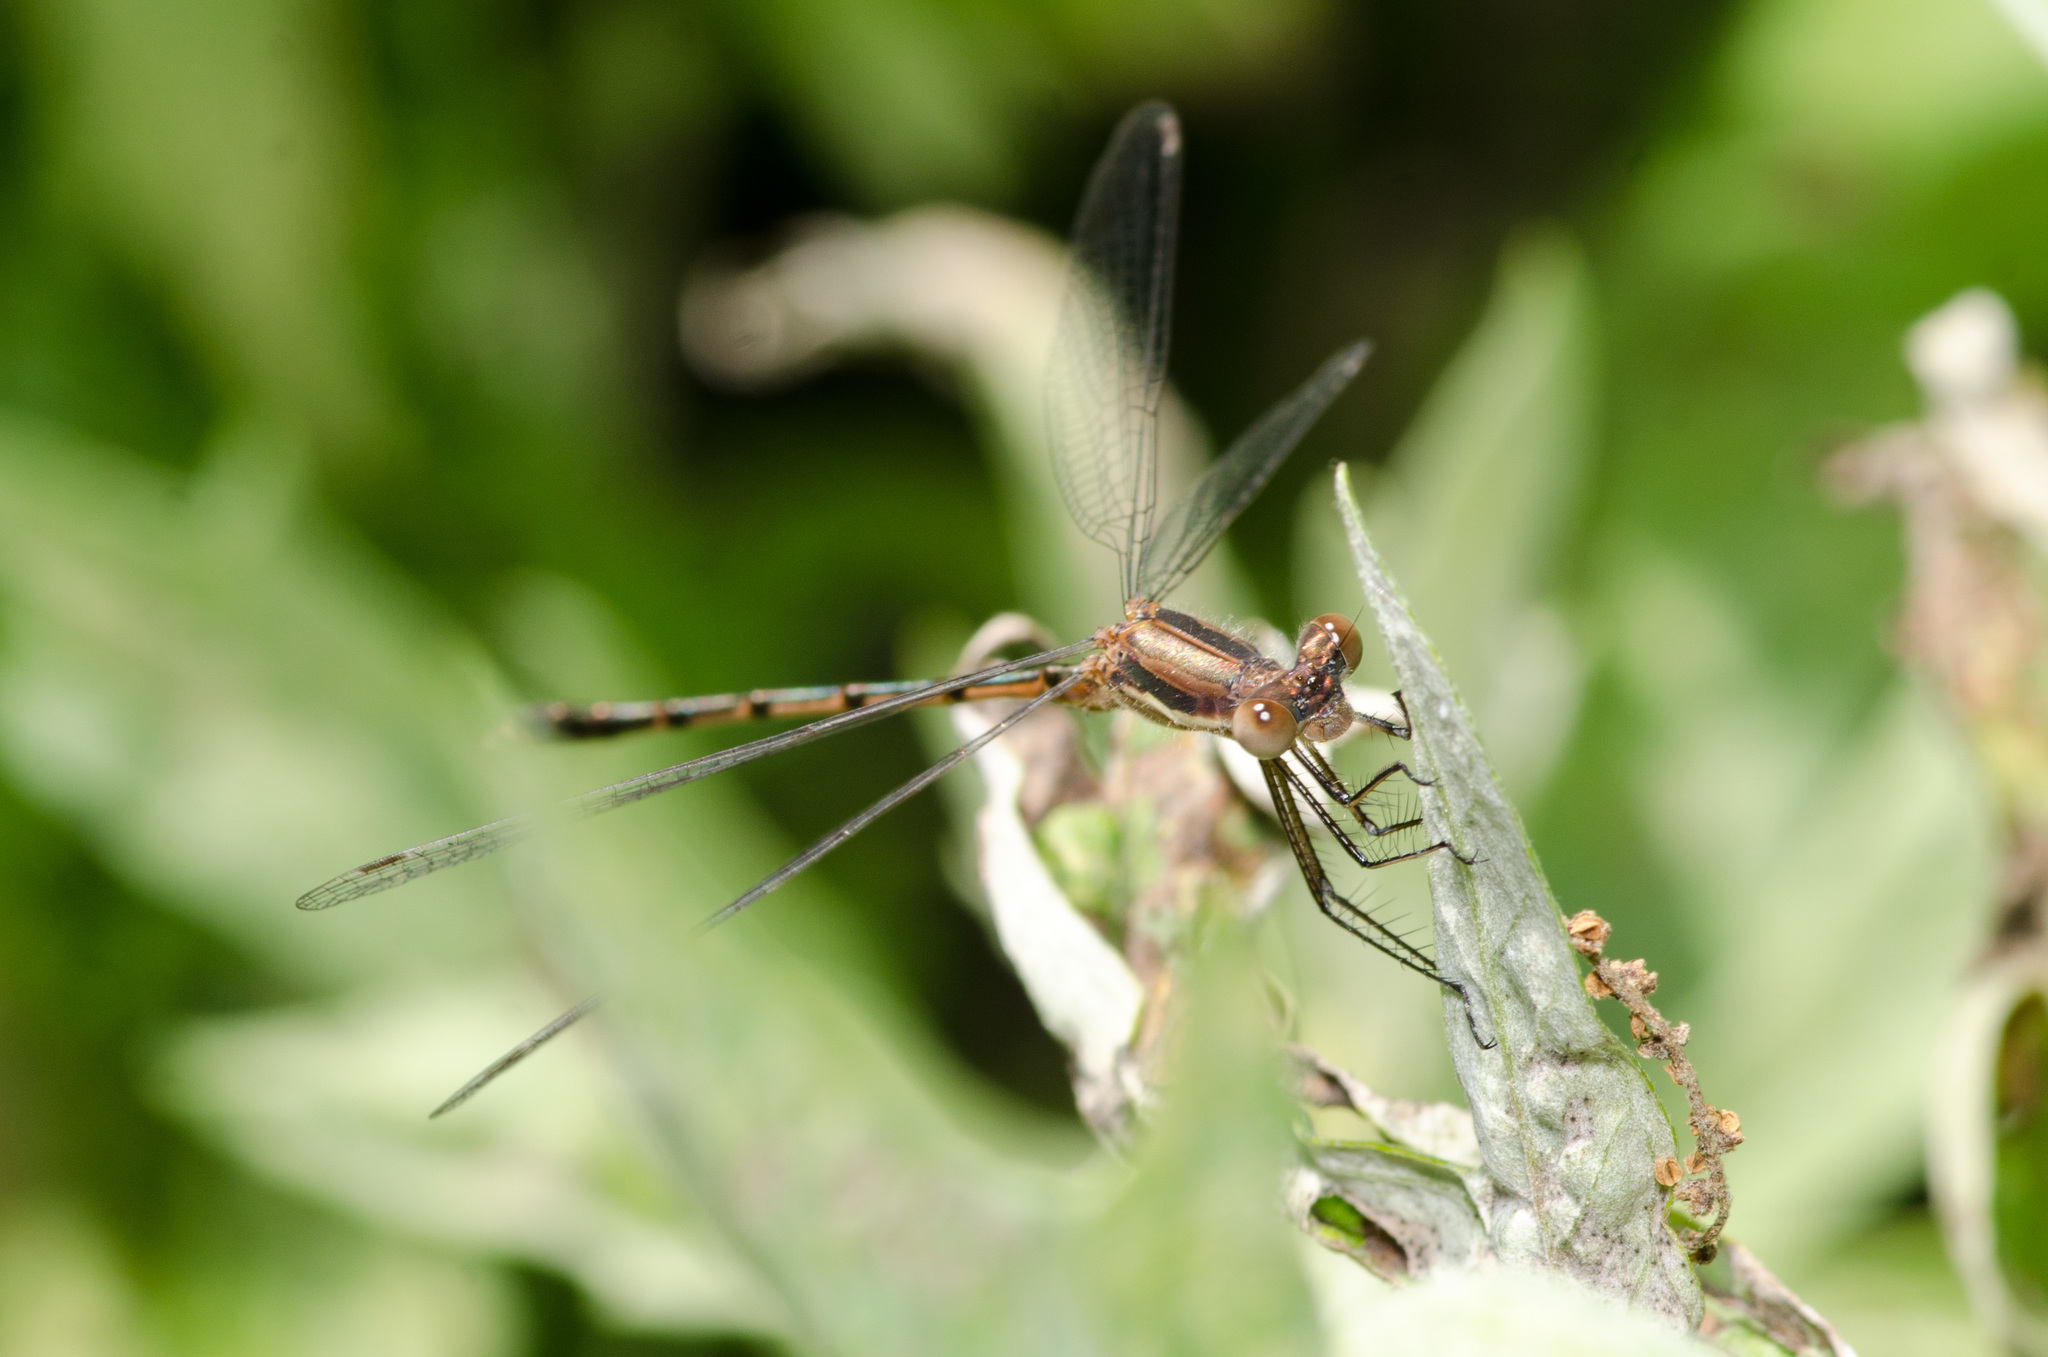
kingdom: Animalia
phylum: Arthropoda
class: Insecta
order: Odonata
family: Lestidae
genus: Lestes
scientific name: Lestes australis
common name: Southern spreadwing
